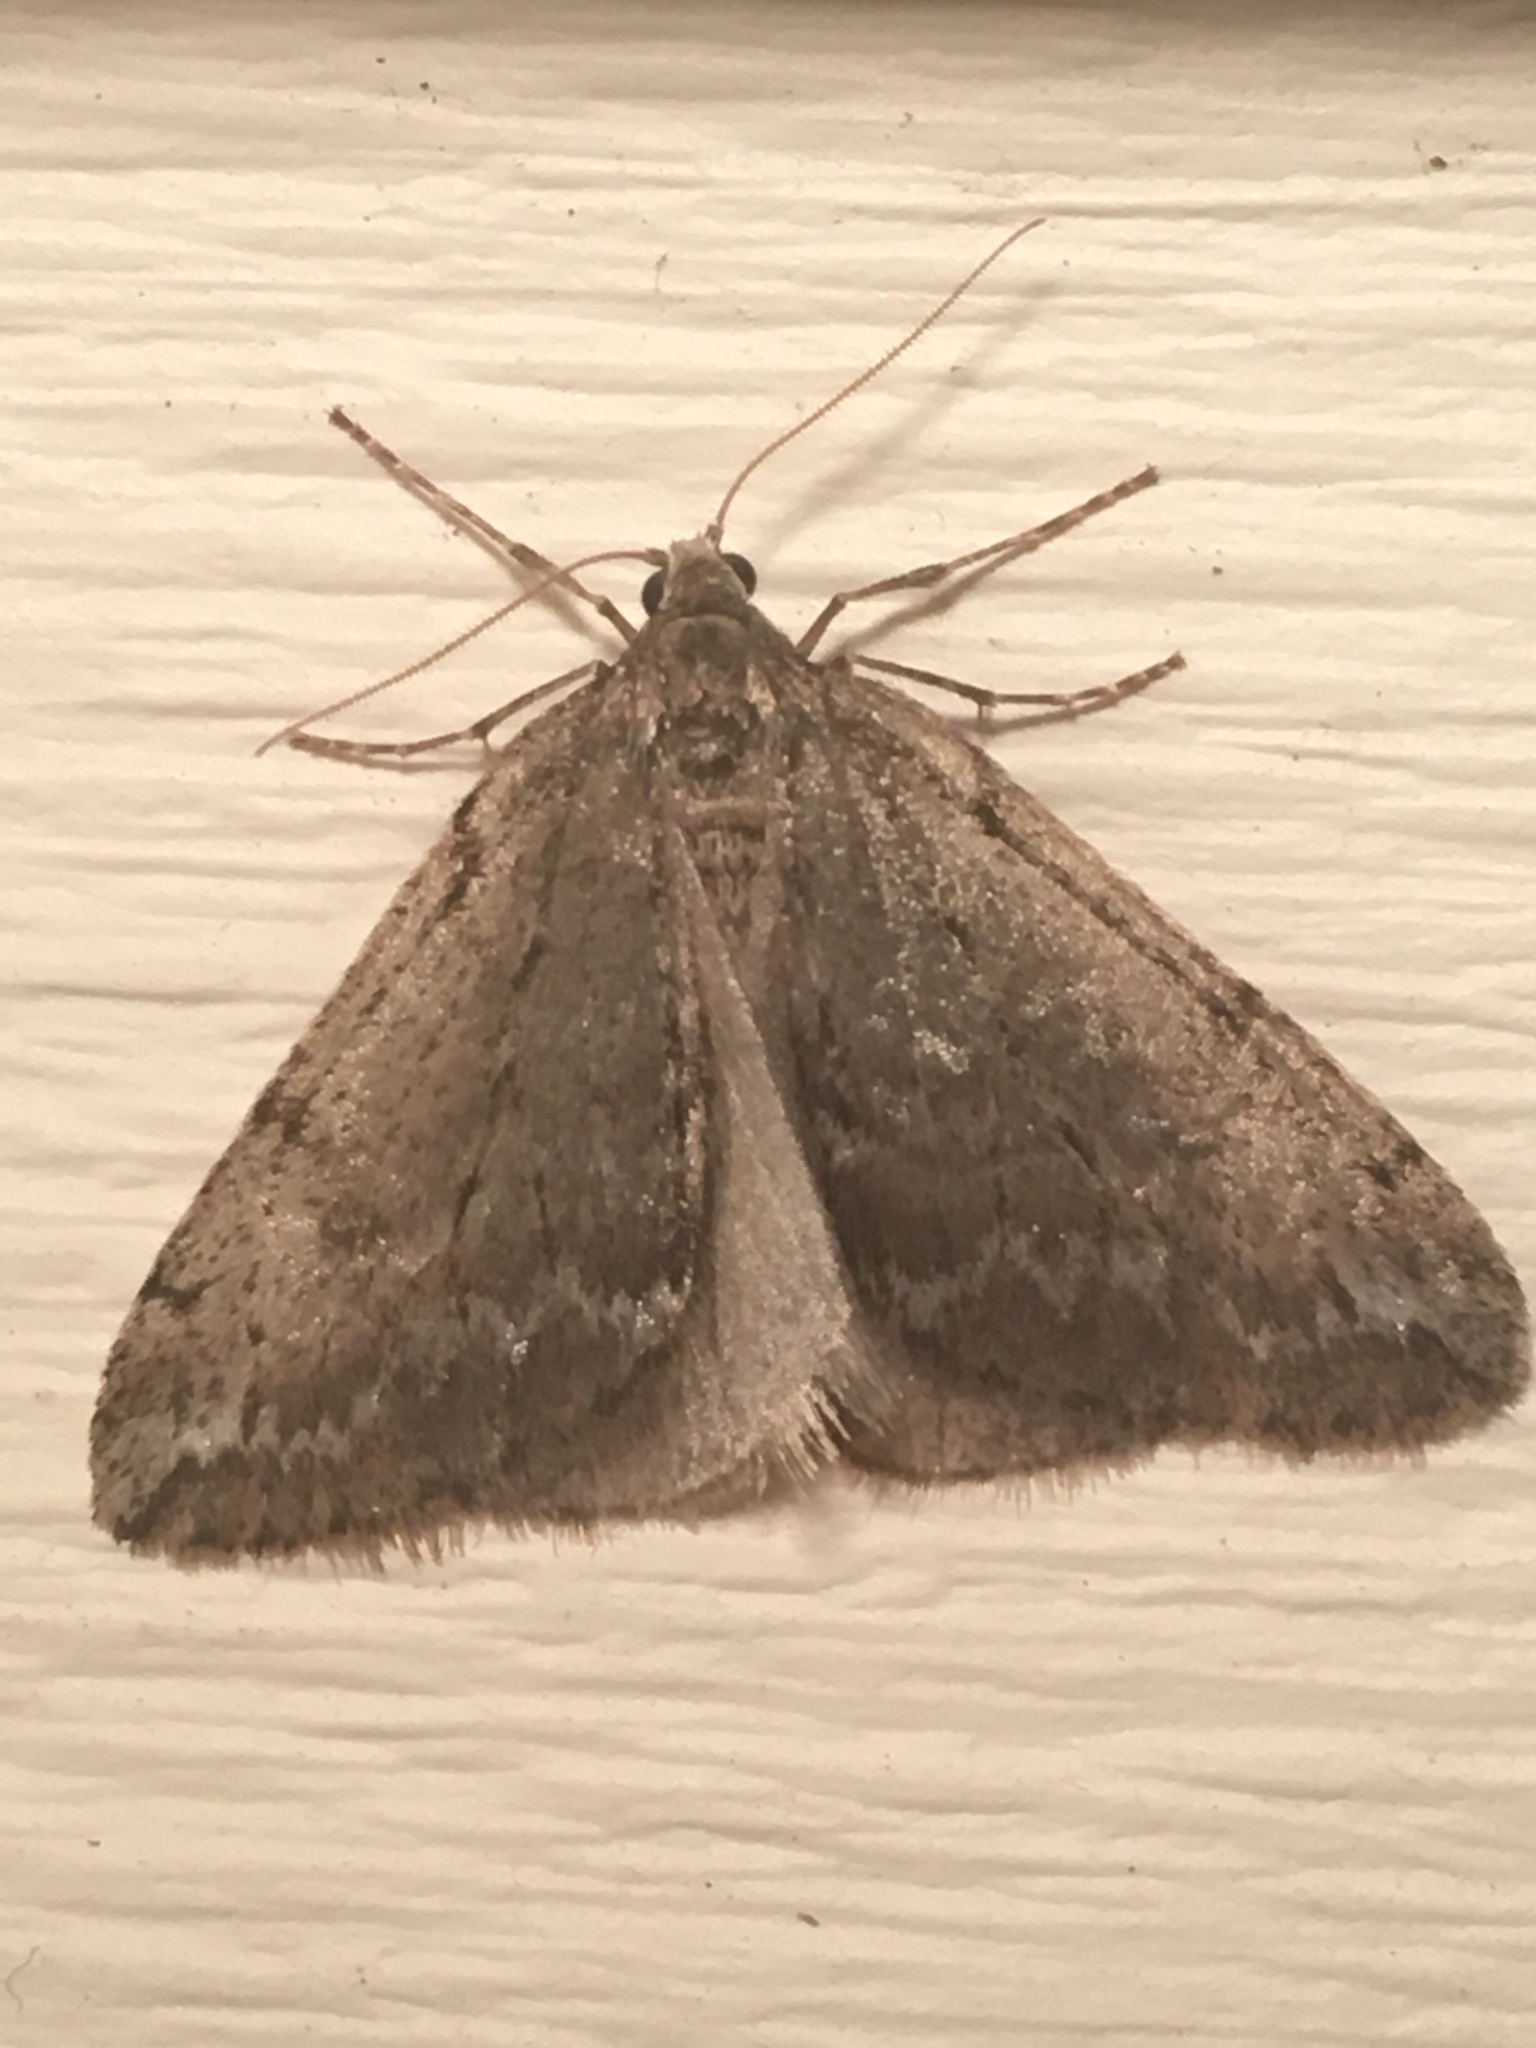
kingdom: Animalia
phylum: Arthropoda
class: Insecta
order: Lepidoptera
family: Geometridae
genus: Alsophila
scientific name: Alsophila pometaria
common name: Fall cankerworm
